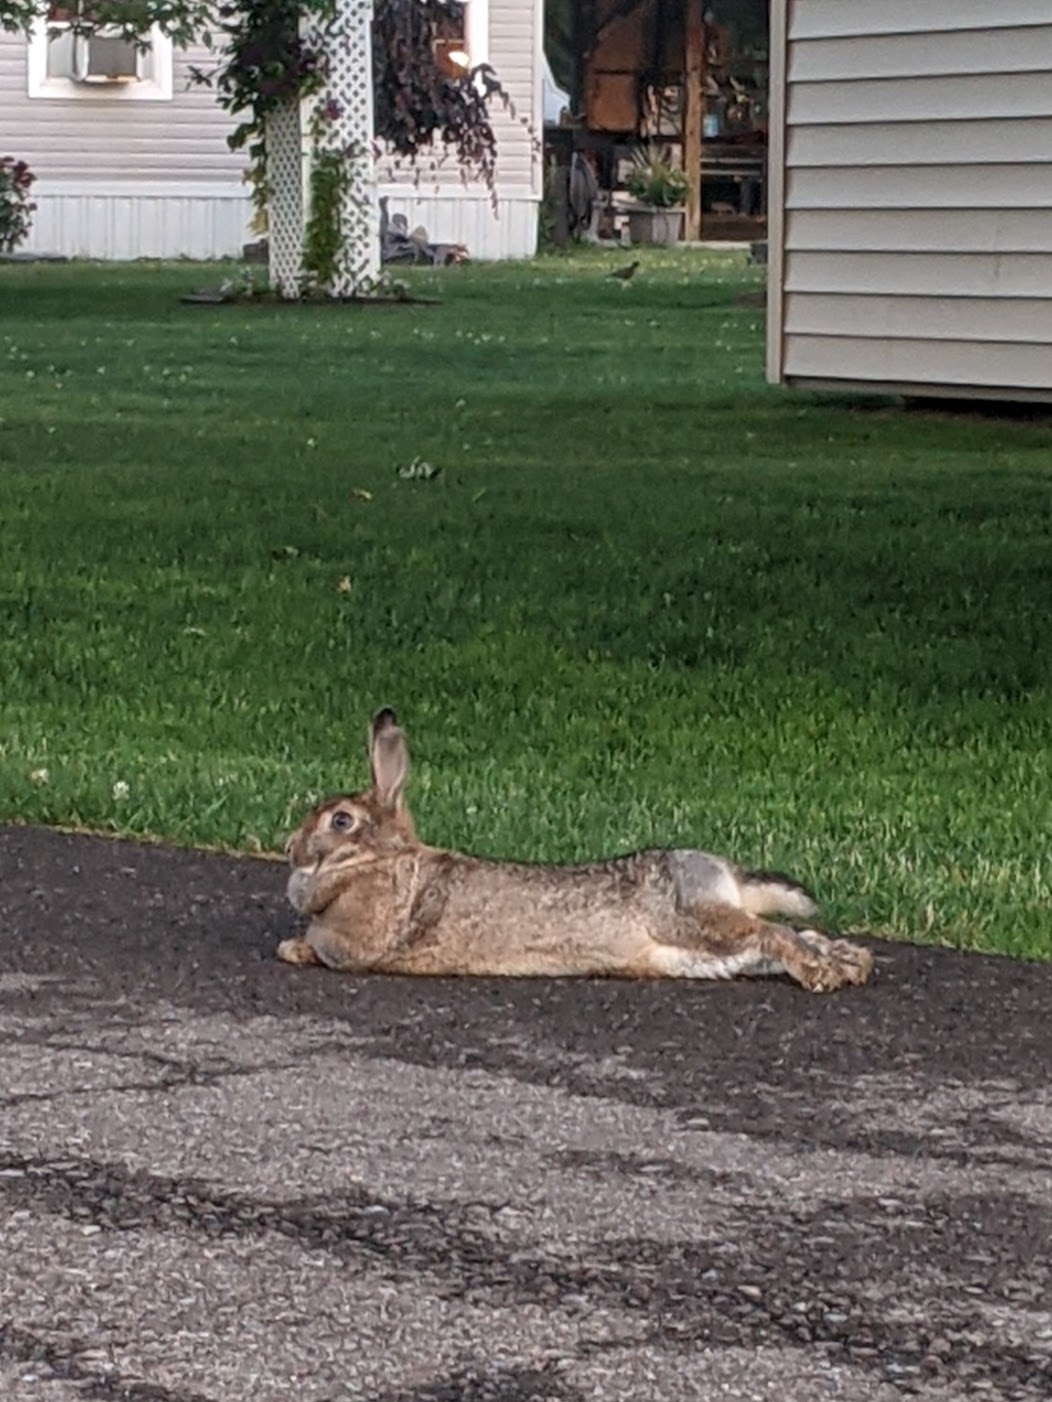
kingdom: Animalia
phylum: Chordata
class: Mammalia
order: Lagomorpha
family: Leporidae
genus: Sylvilagus
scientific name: Sylvilagus floridanus
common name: Eastern cottontail
